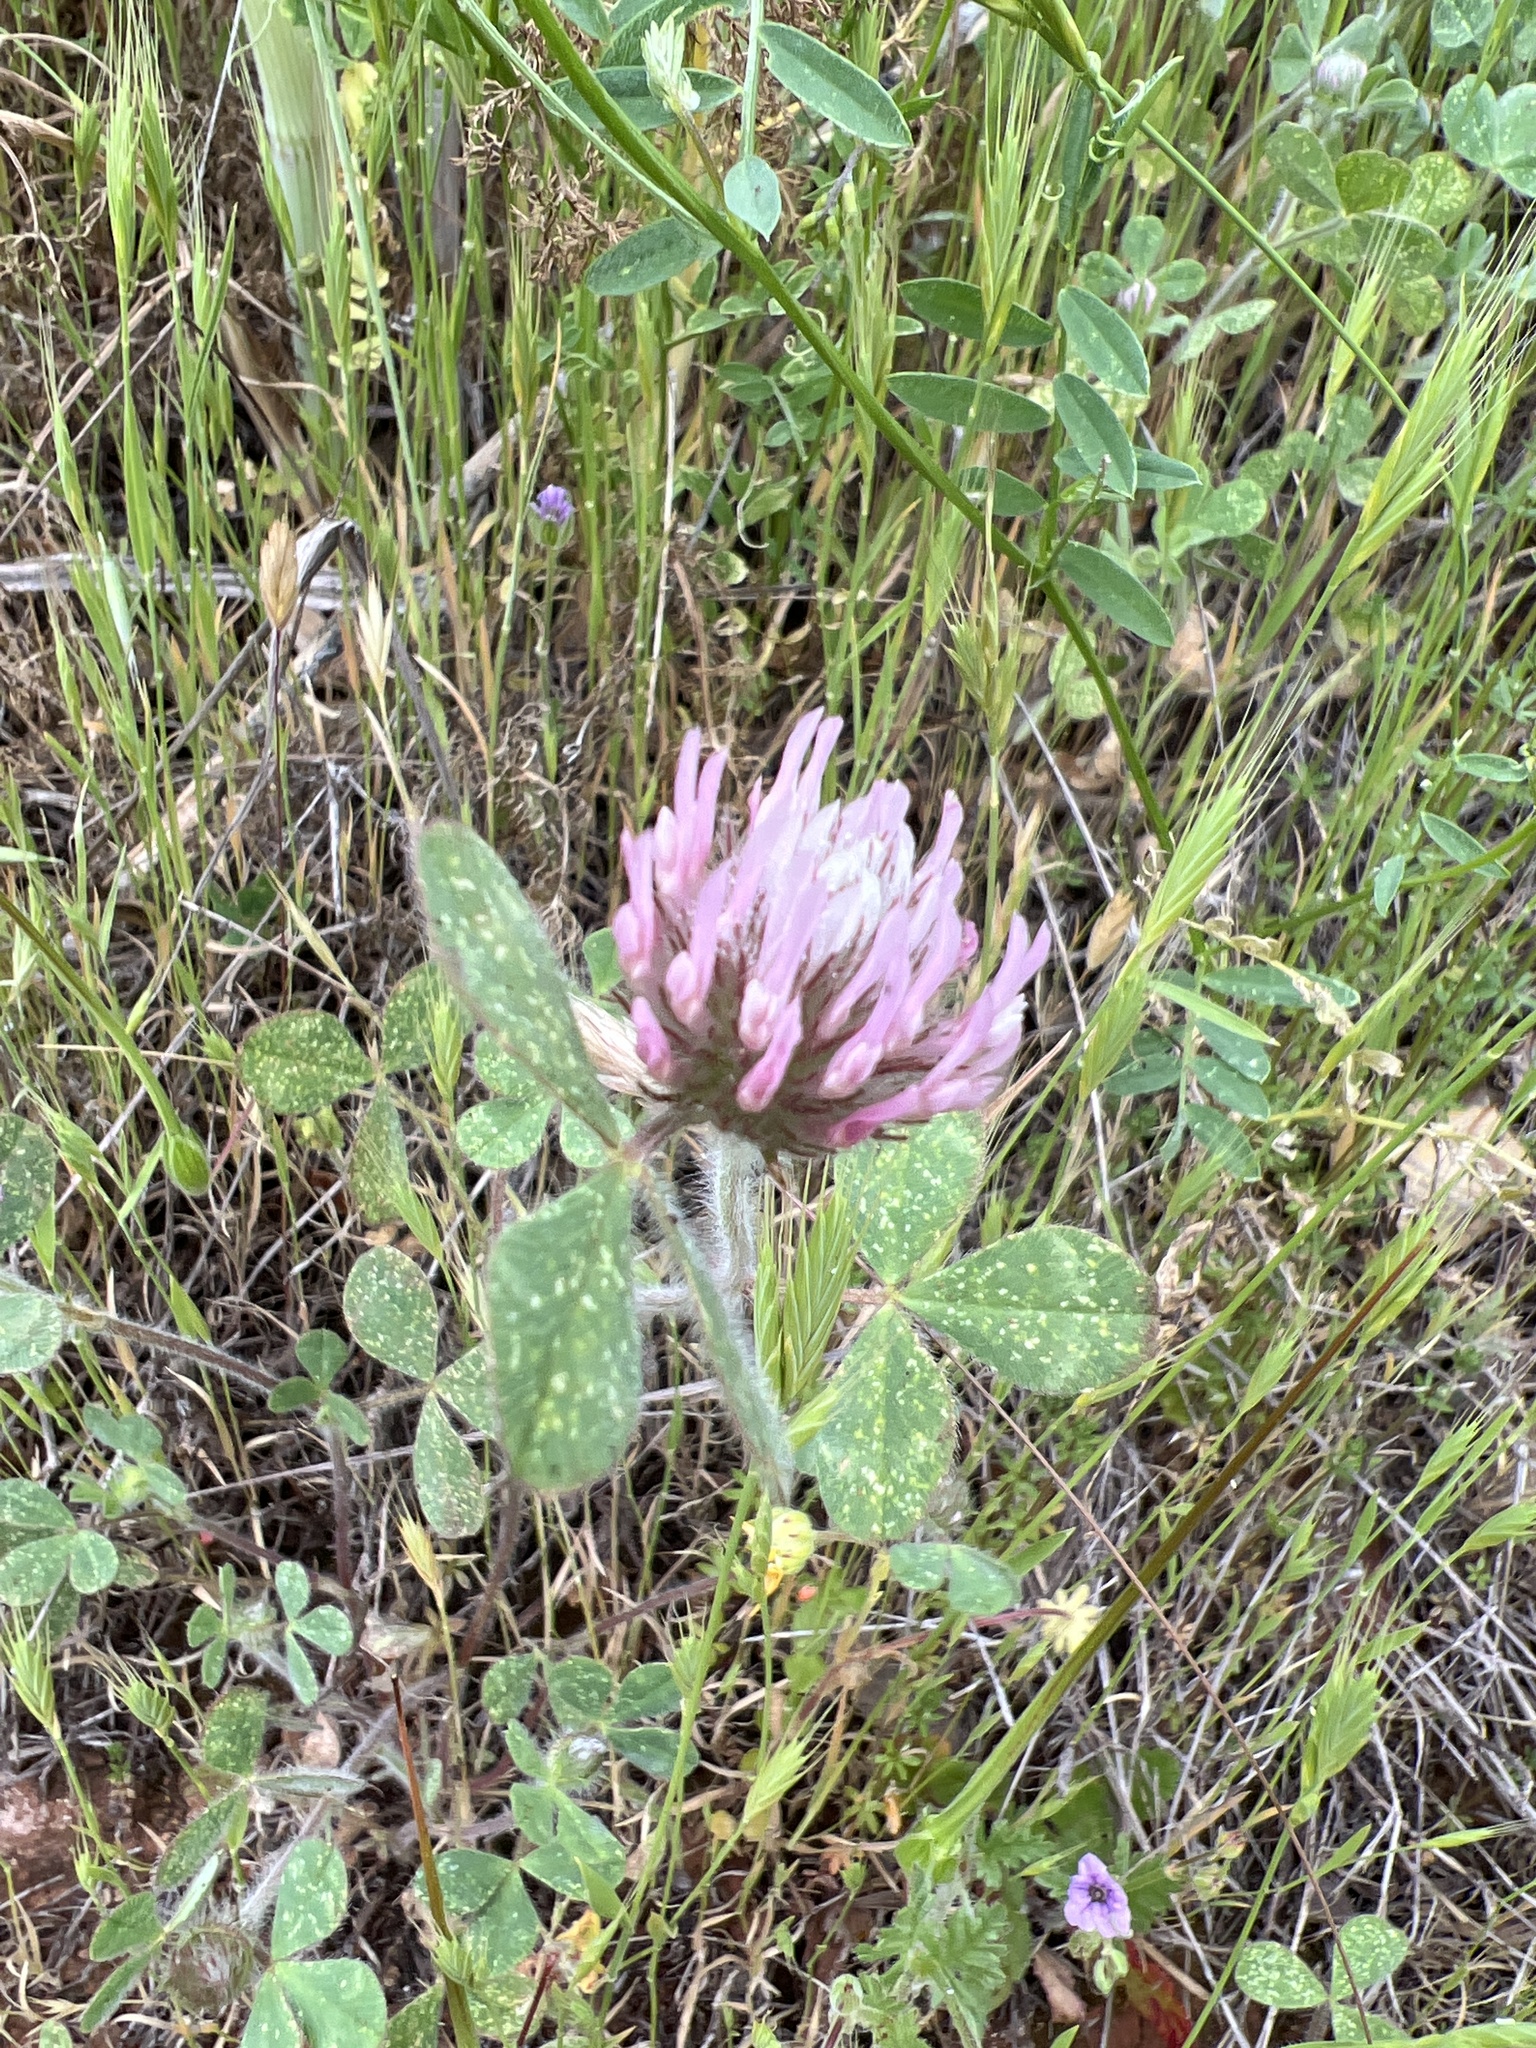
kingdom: Plantae
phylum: Tracheophyta
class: Magnoliopsida
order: Fabales
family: Fabaceae
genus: Trifolium
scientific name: Trifolium hirtum
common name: Rose clover
